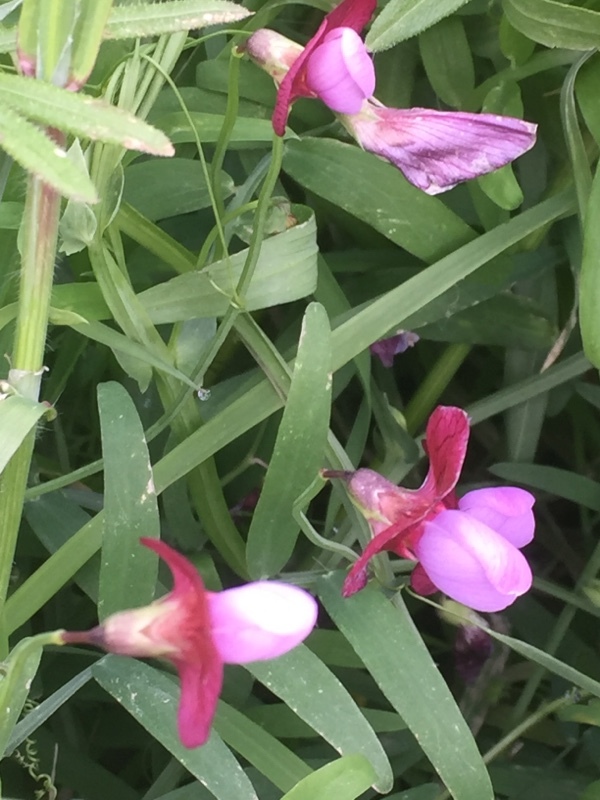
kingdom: Plantae
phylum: Tracheophyta
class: Magnoliopsida
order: Fabales
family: Fabaceae
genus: Lathyrus
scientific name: Lathyrus clymenum
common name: Spanish vetchling
